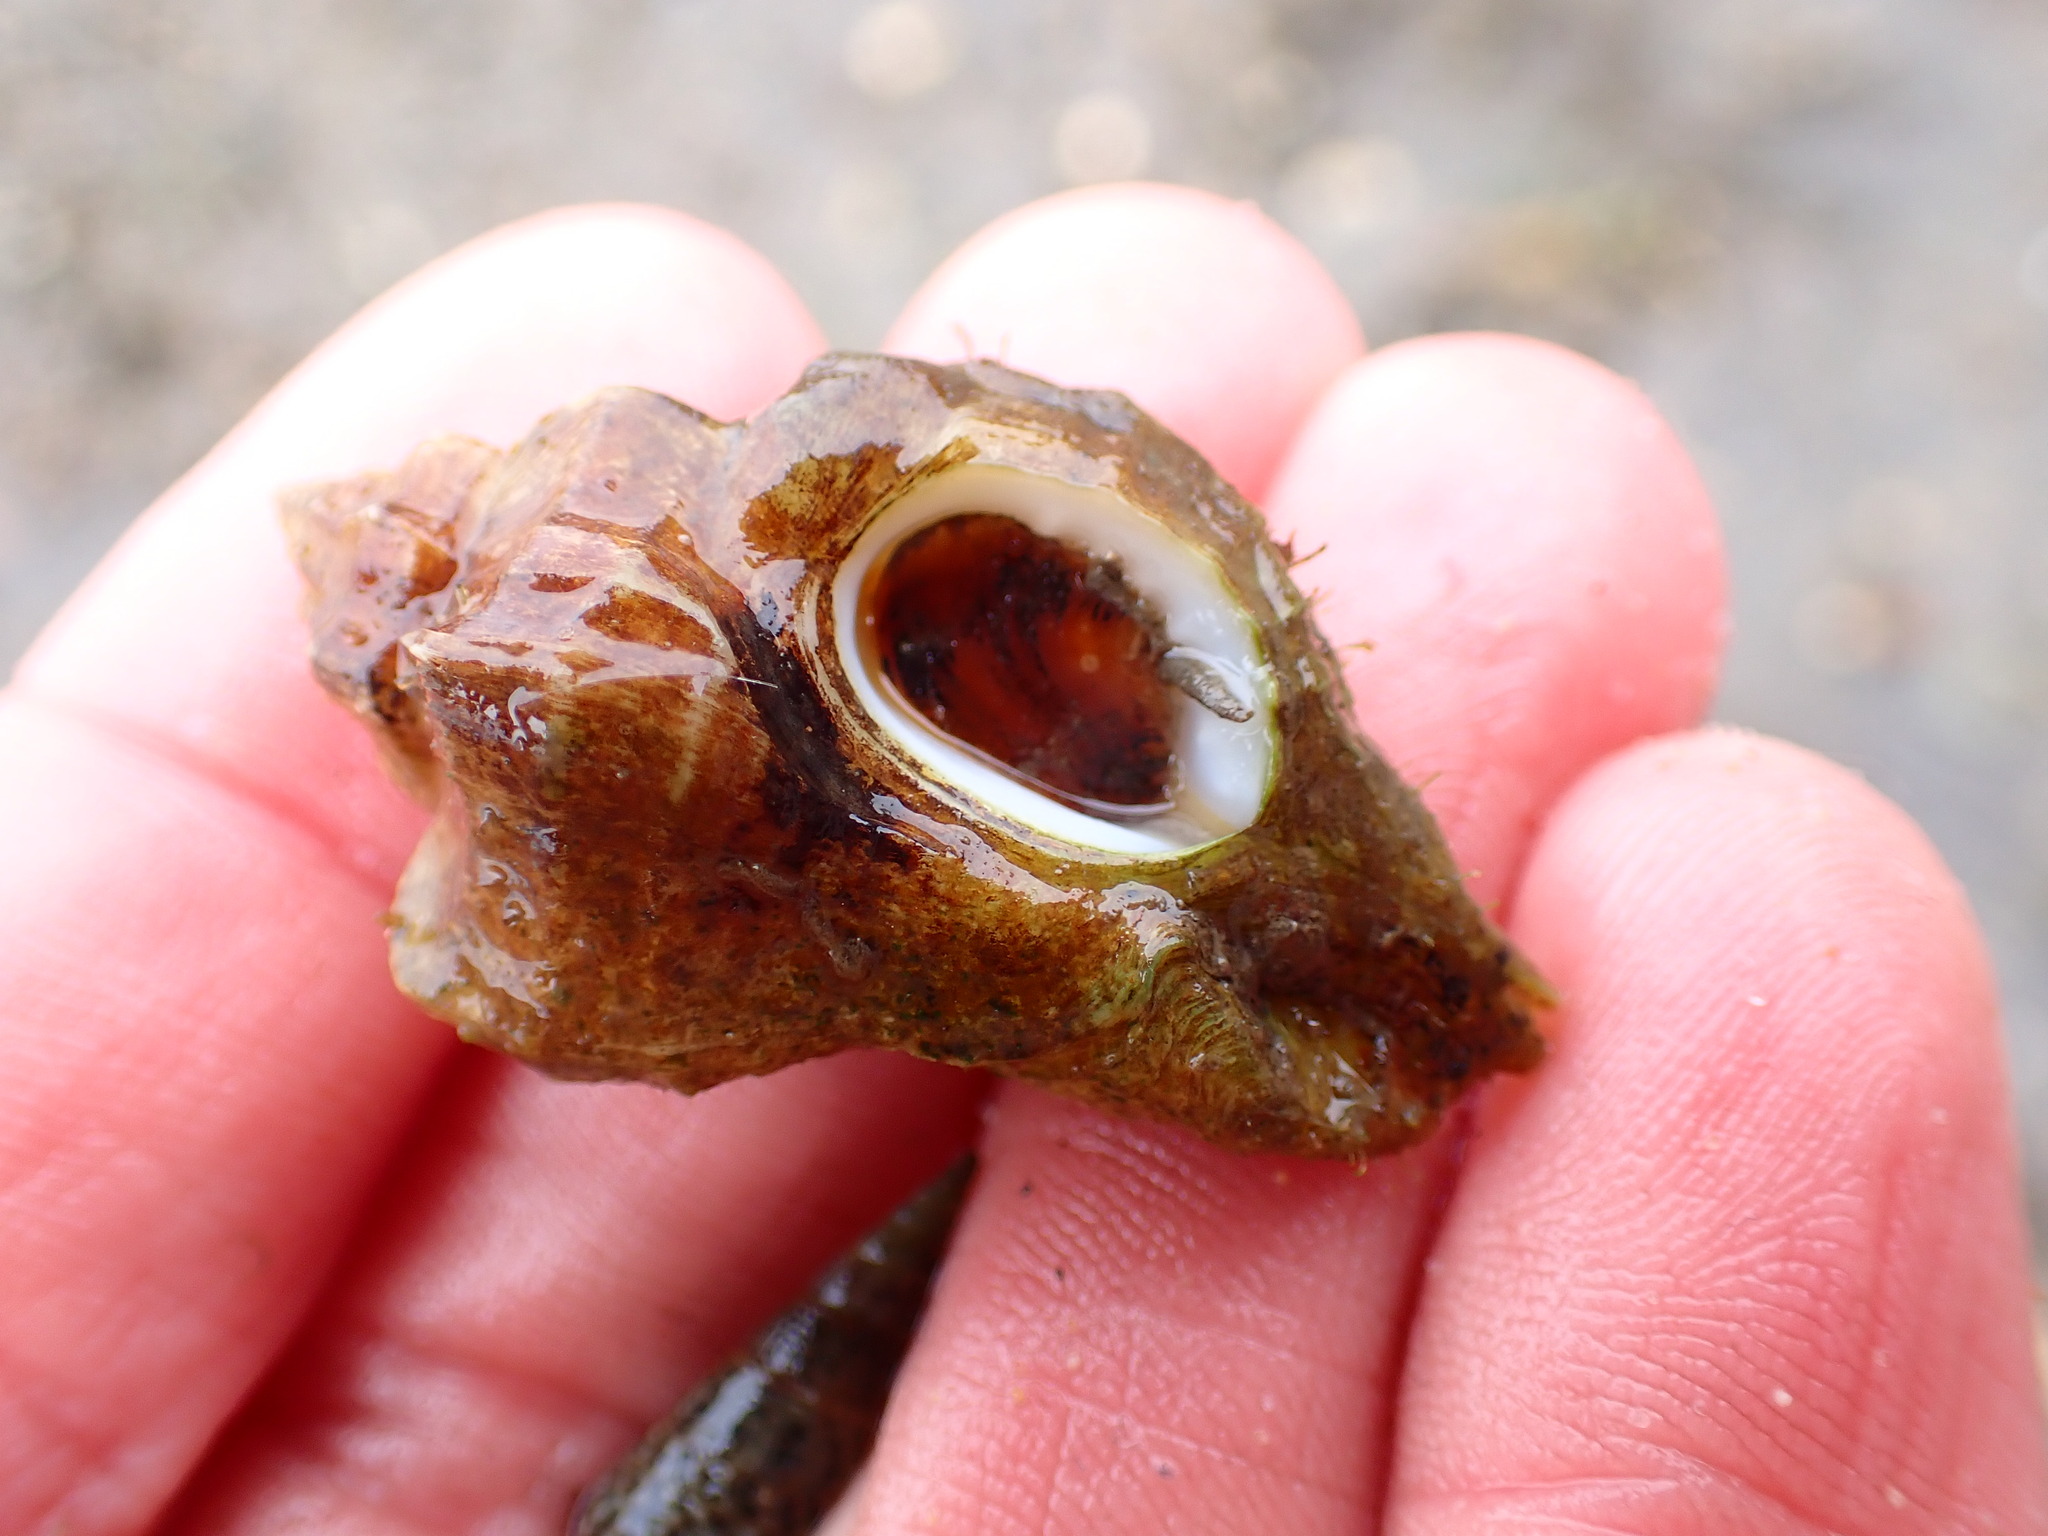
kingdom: Animalia
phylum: Mollusca
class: Gastropoda
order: Neogastropoda
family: Muricidae
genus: Ocinebrellus
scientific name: Ocinebrellus inornatus
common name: Asian drill snail
